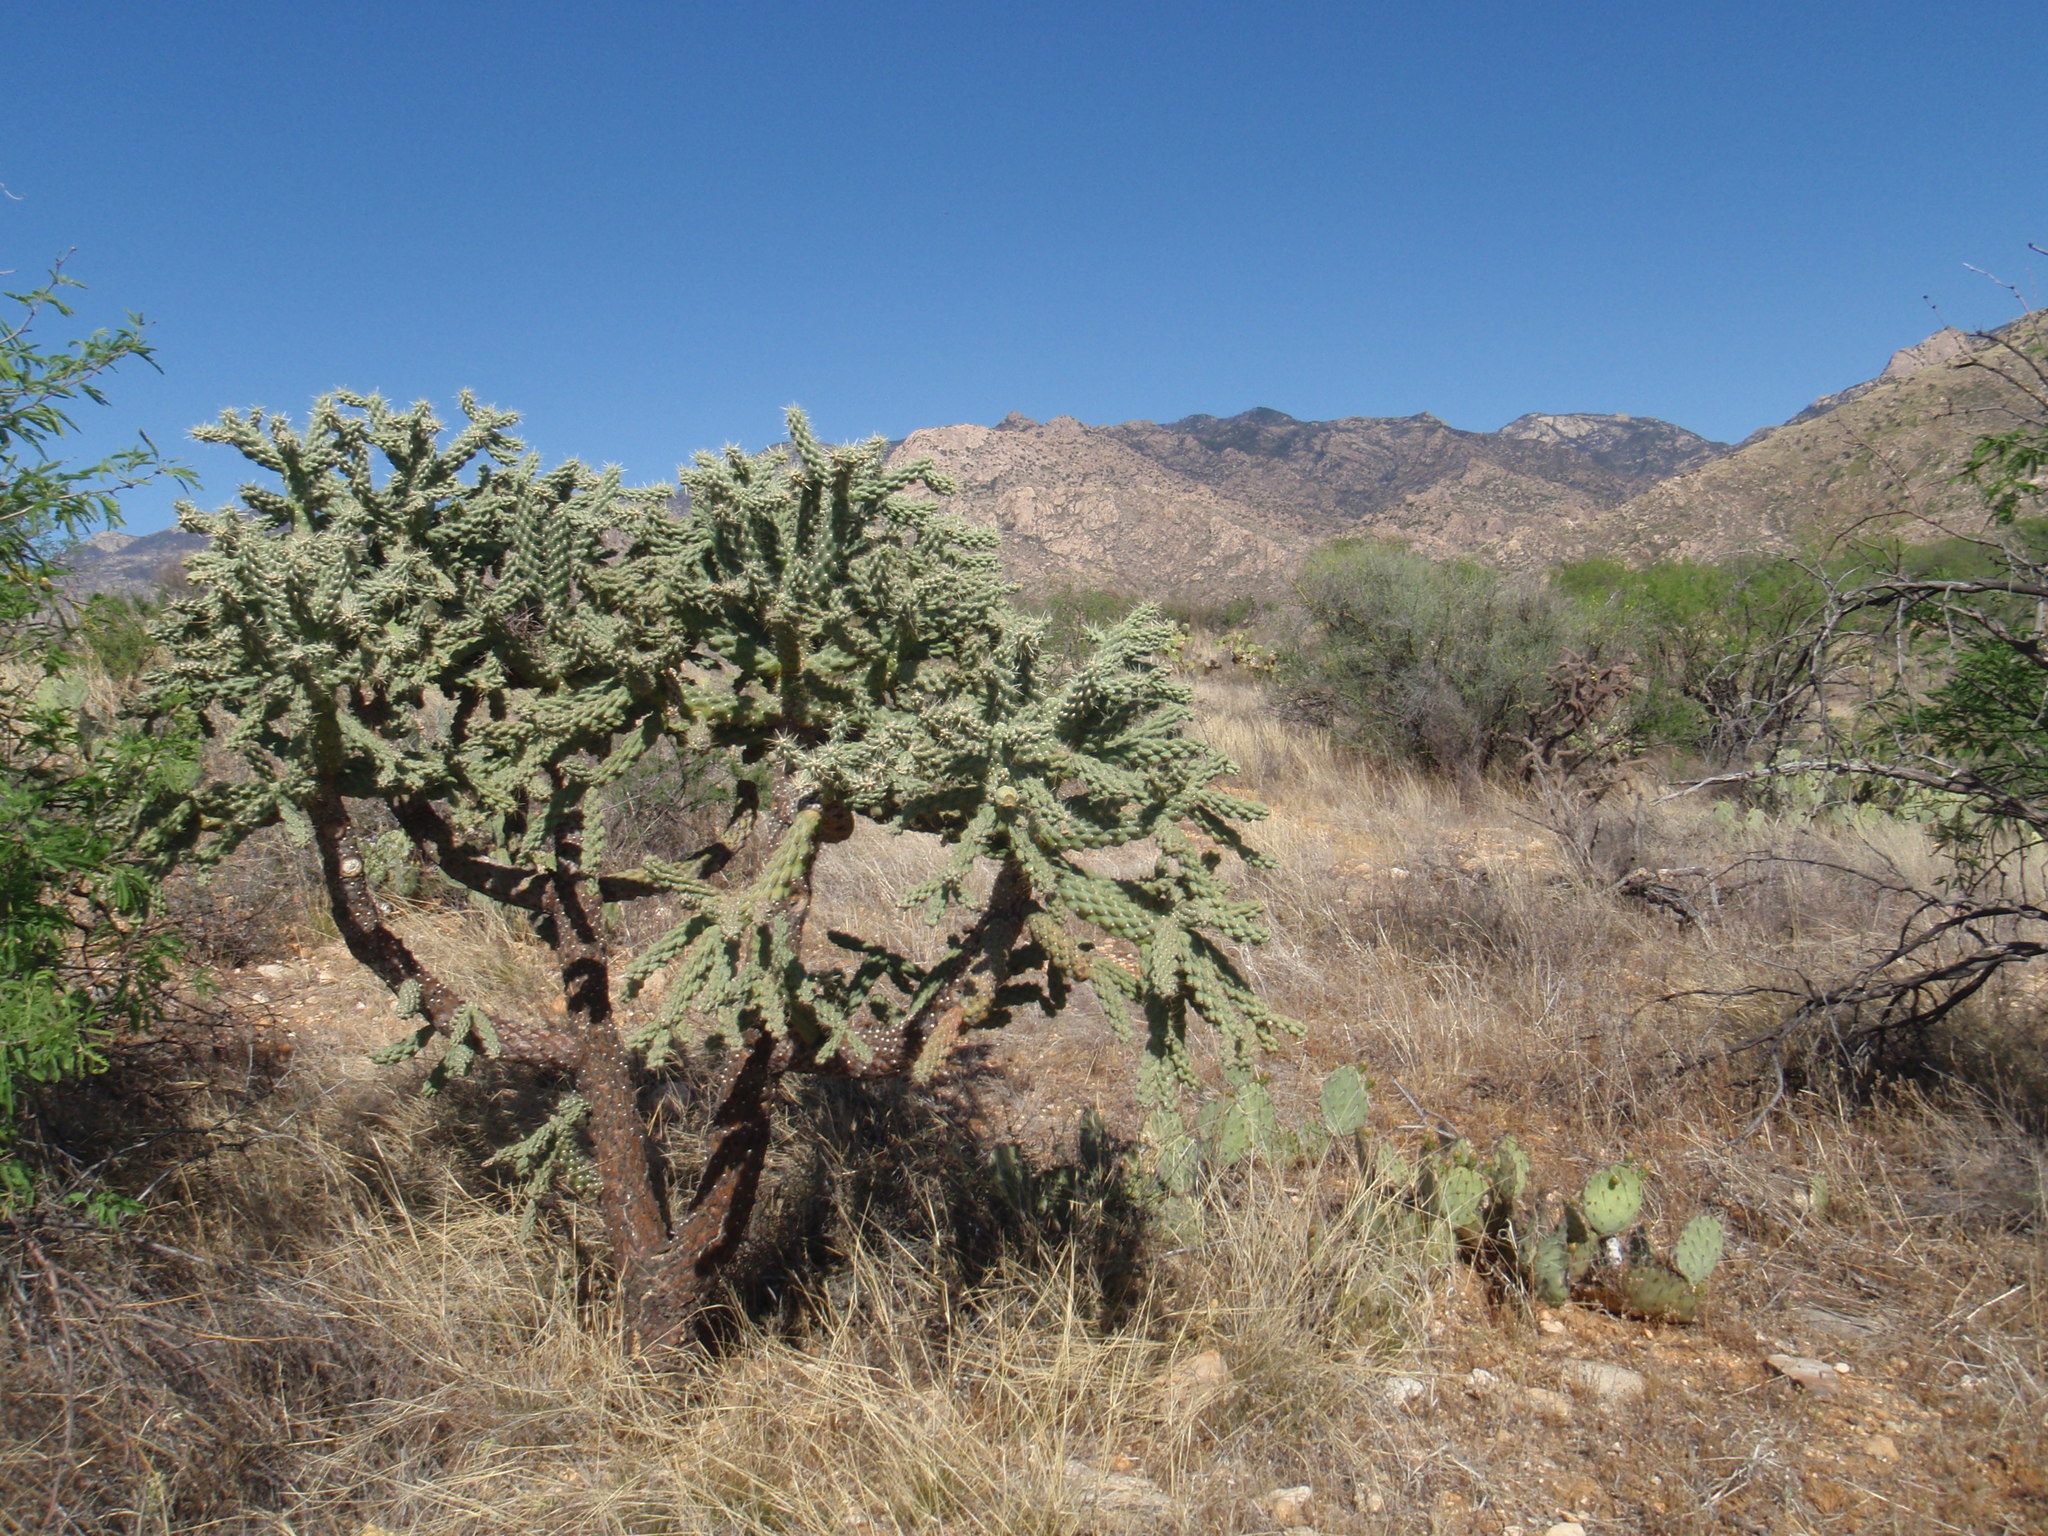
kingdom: Plantae
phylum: Tracheophyta
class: Magnoliopsida
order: Caryophyllales
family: Cactaceae
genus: Cylindropuntia
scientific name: Cylindropuntia fulgida
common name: Jumping cholla
